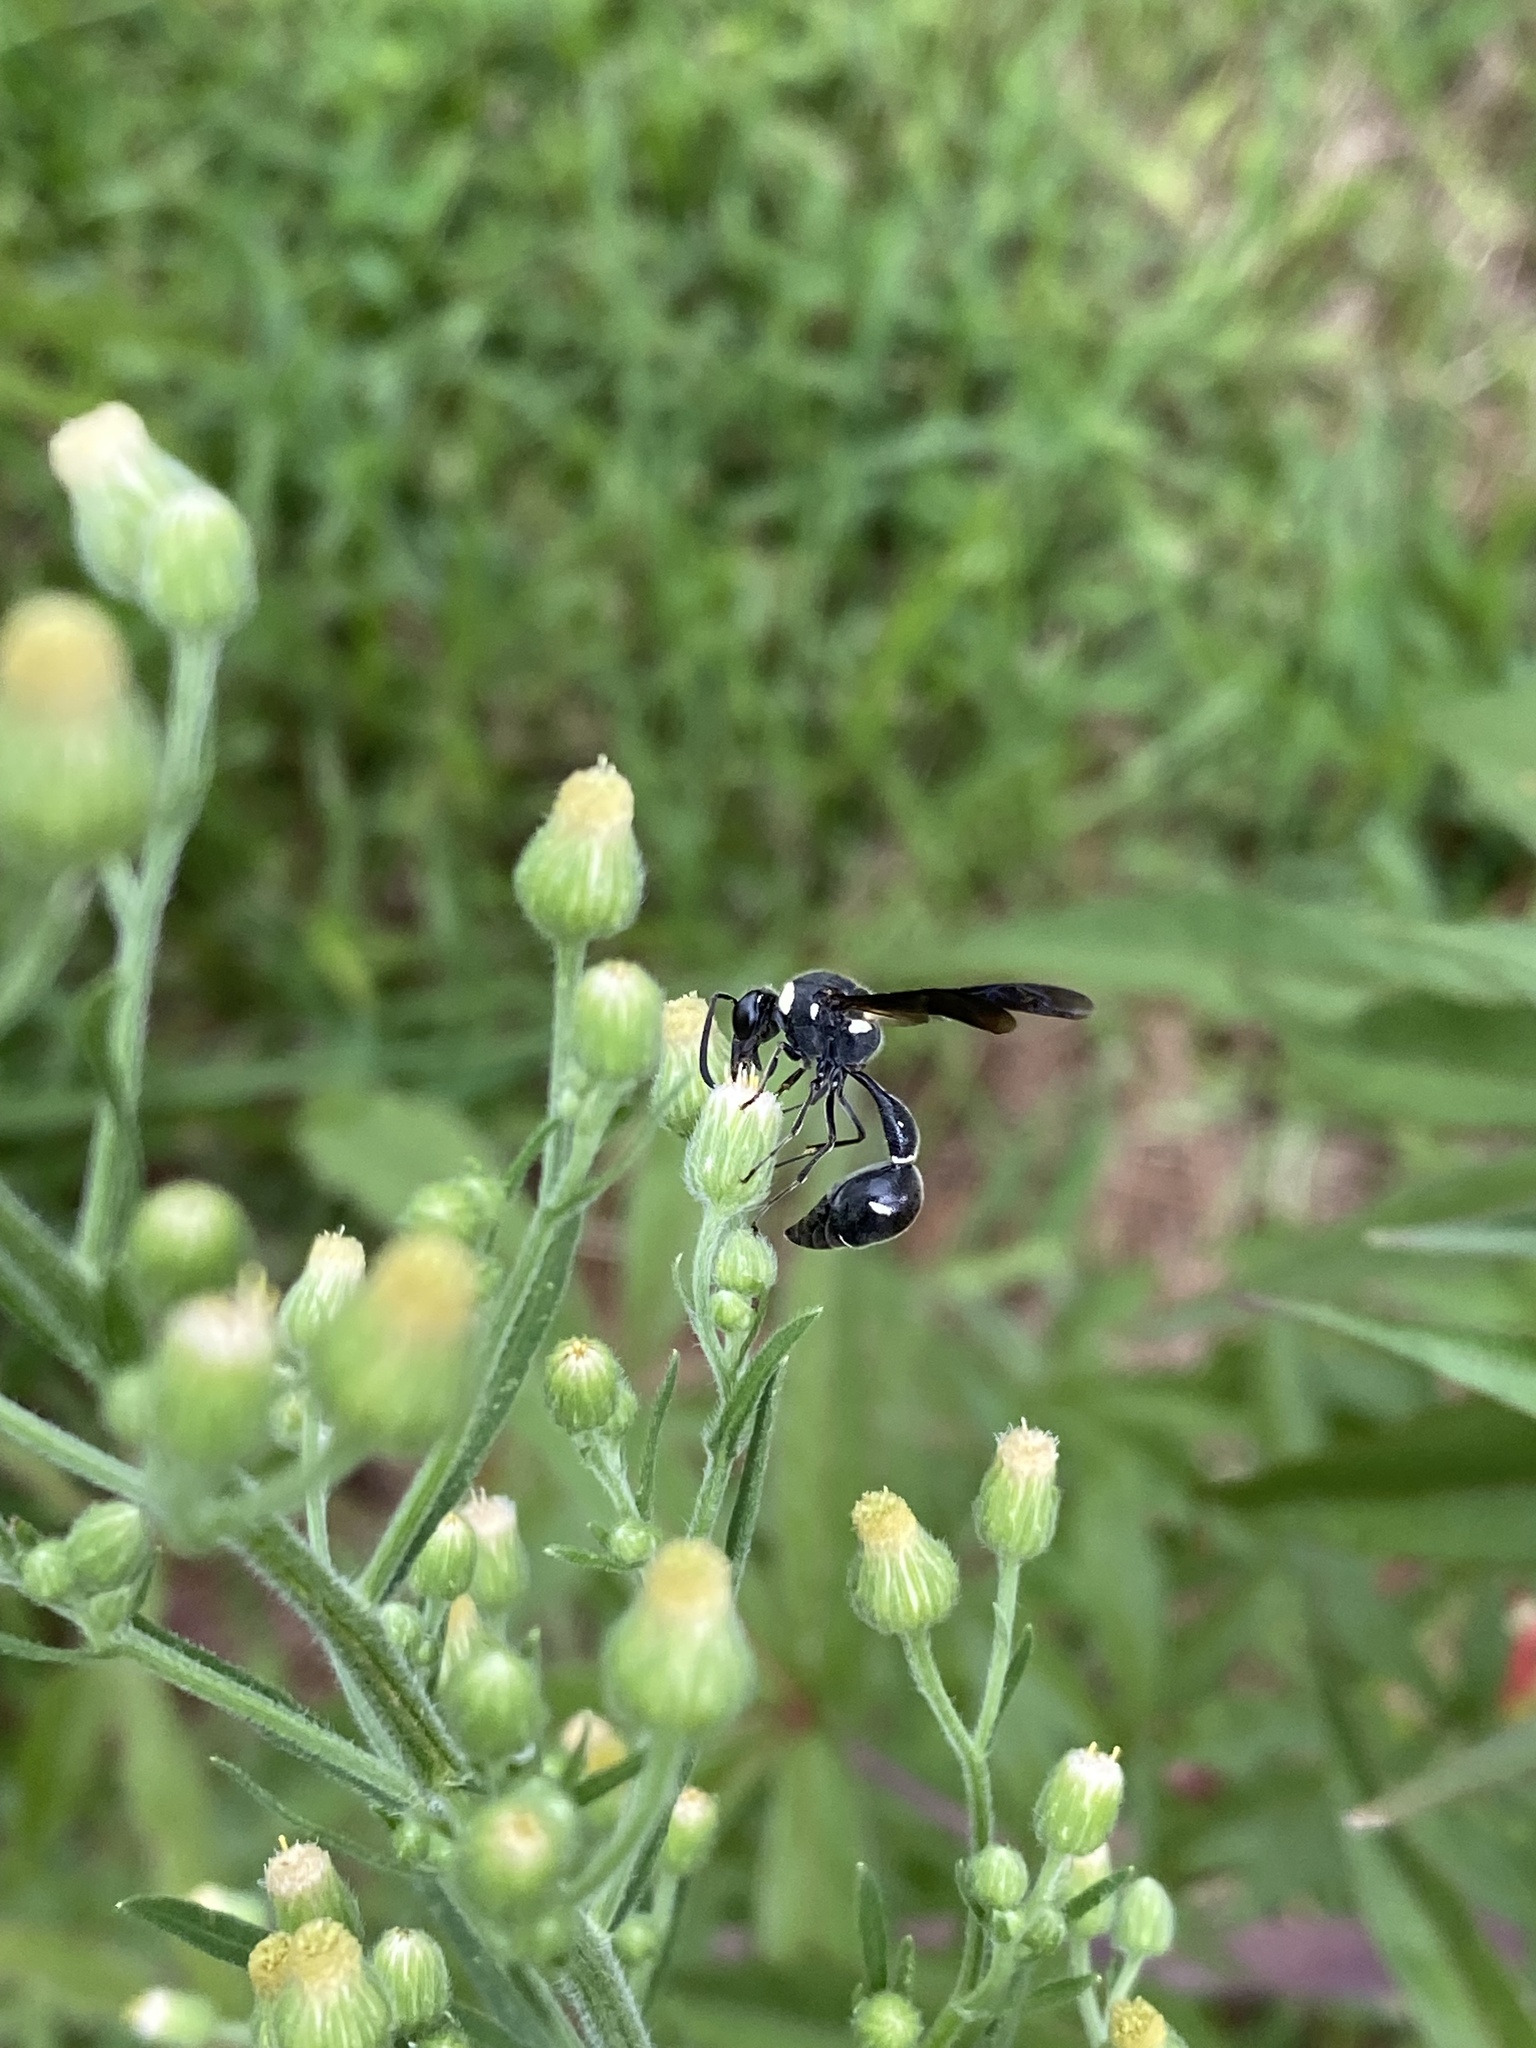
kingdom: Animalia
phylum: Arthropoda
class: Insecta
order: Hymenoptera
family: Vespidae
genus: Eumenes
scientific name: Eumenes fraternus
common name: Fraternal potter wasp
